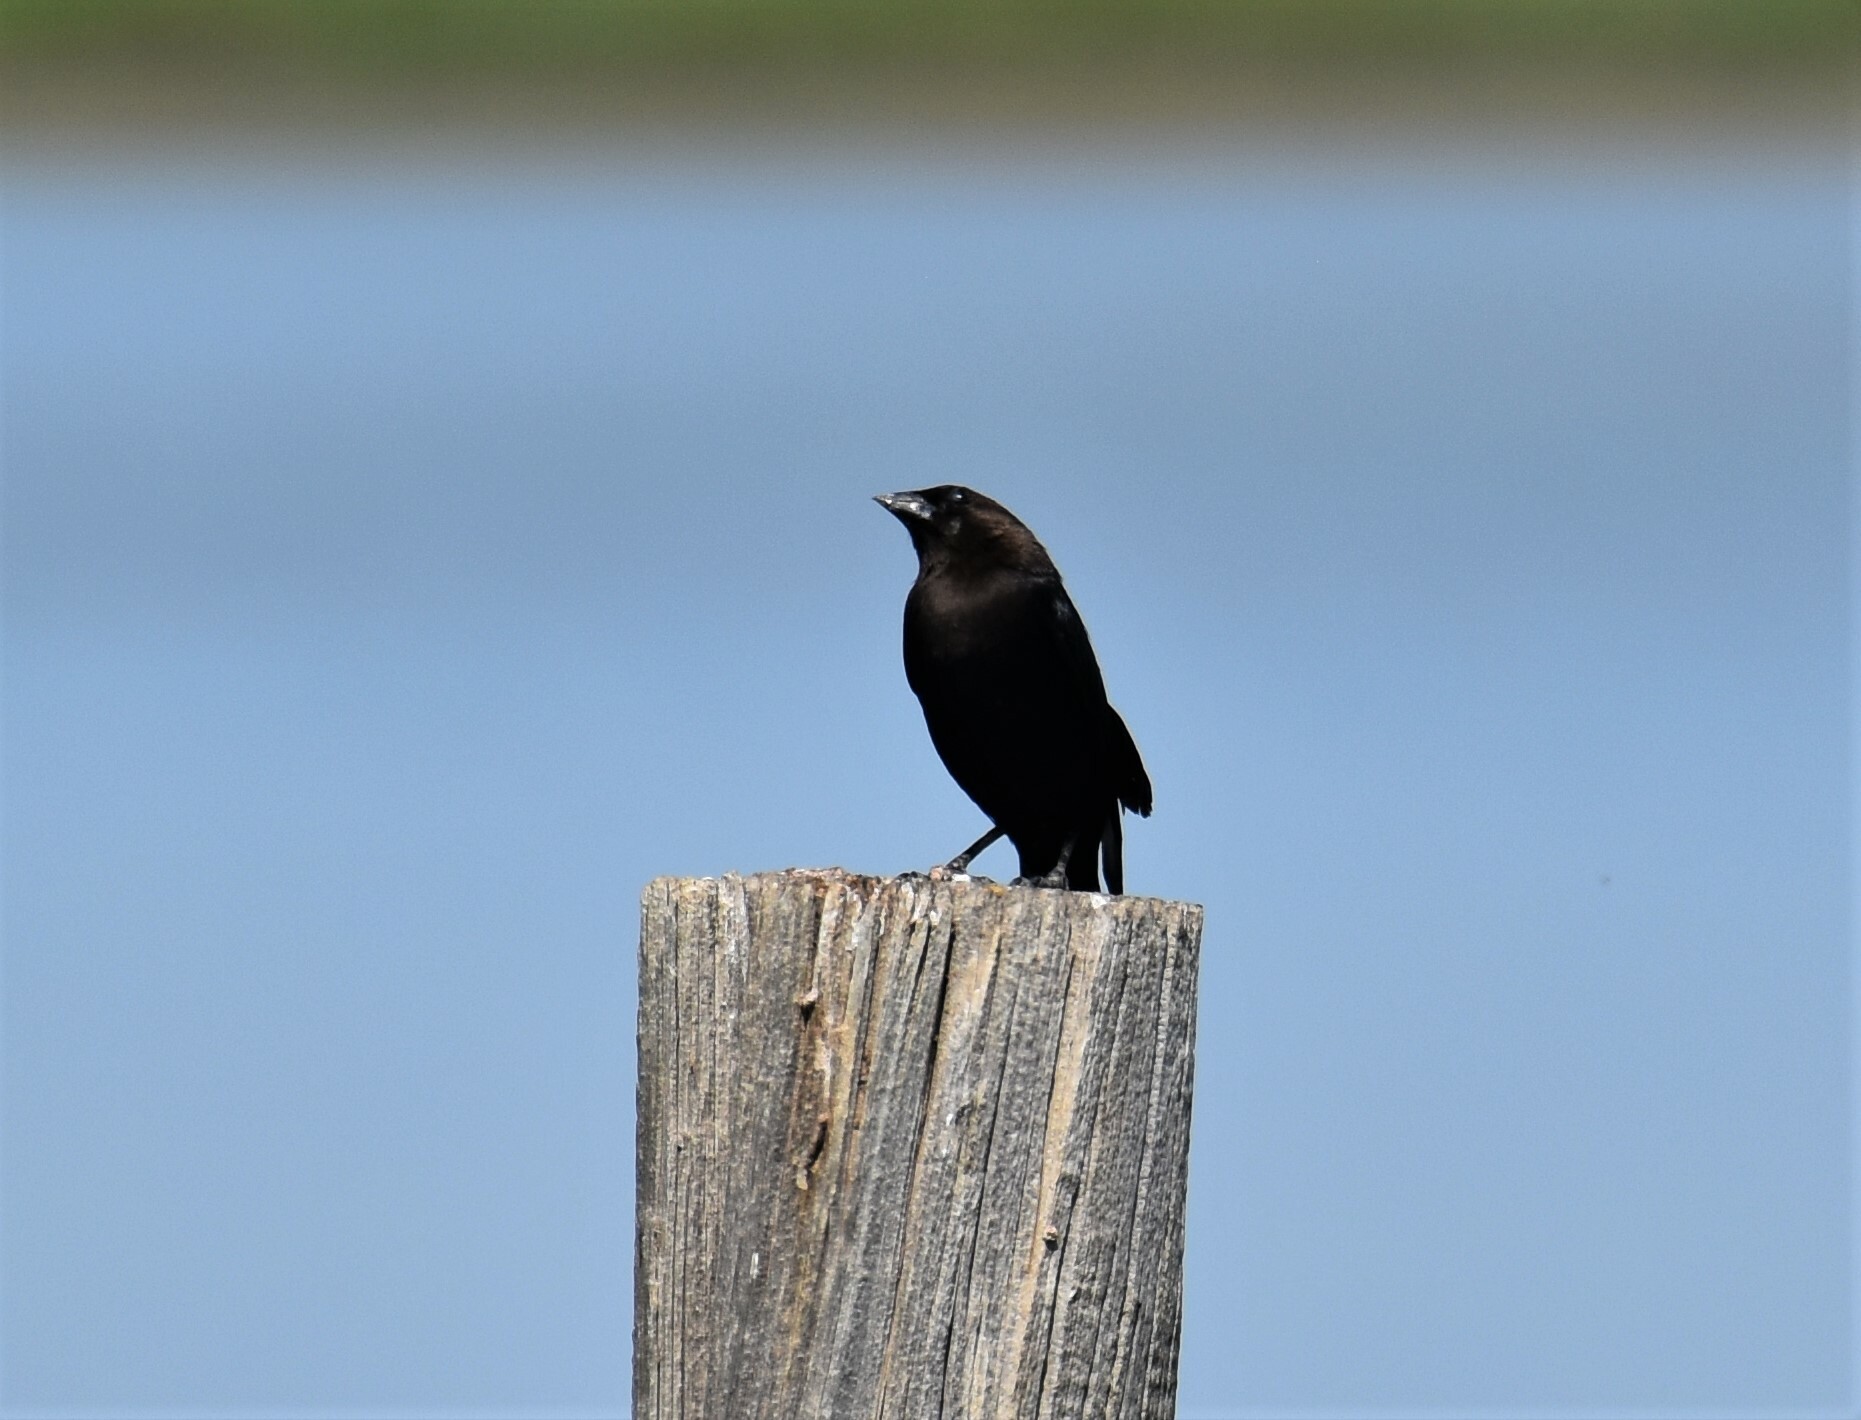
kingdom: Animalia
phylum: Chordata
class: Aves
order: Passeriformes
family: Icteridae
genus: Molothrus
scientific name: Molothrus ater
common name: Brown-headed cowbird
